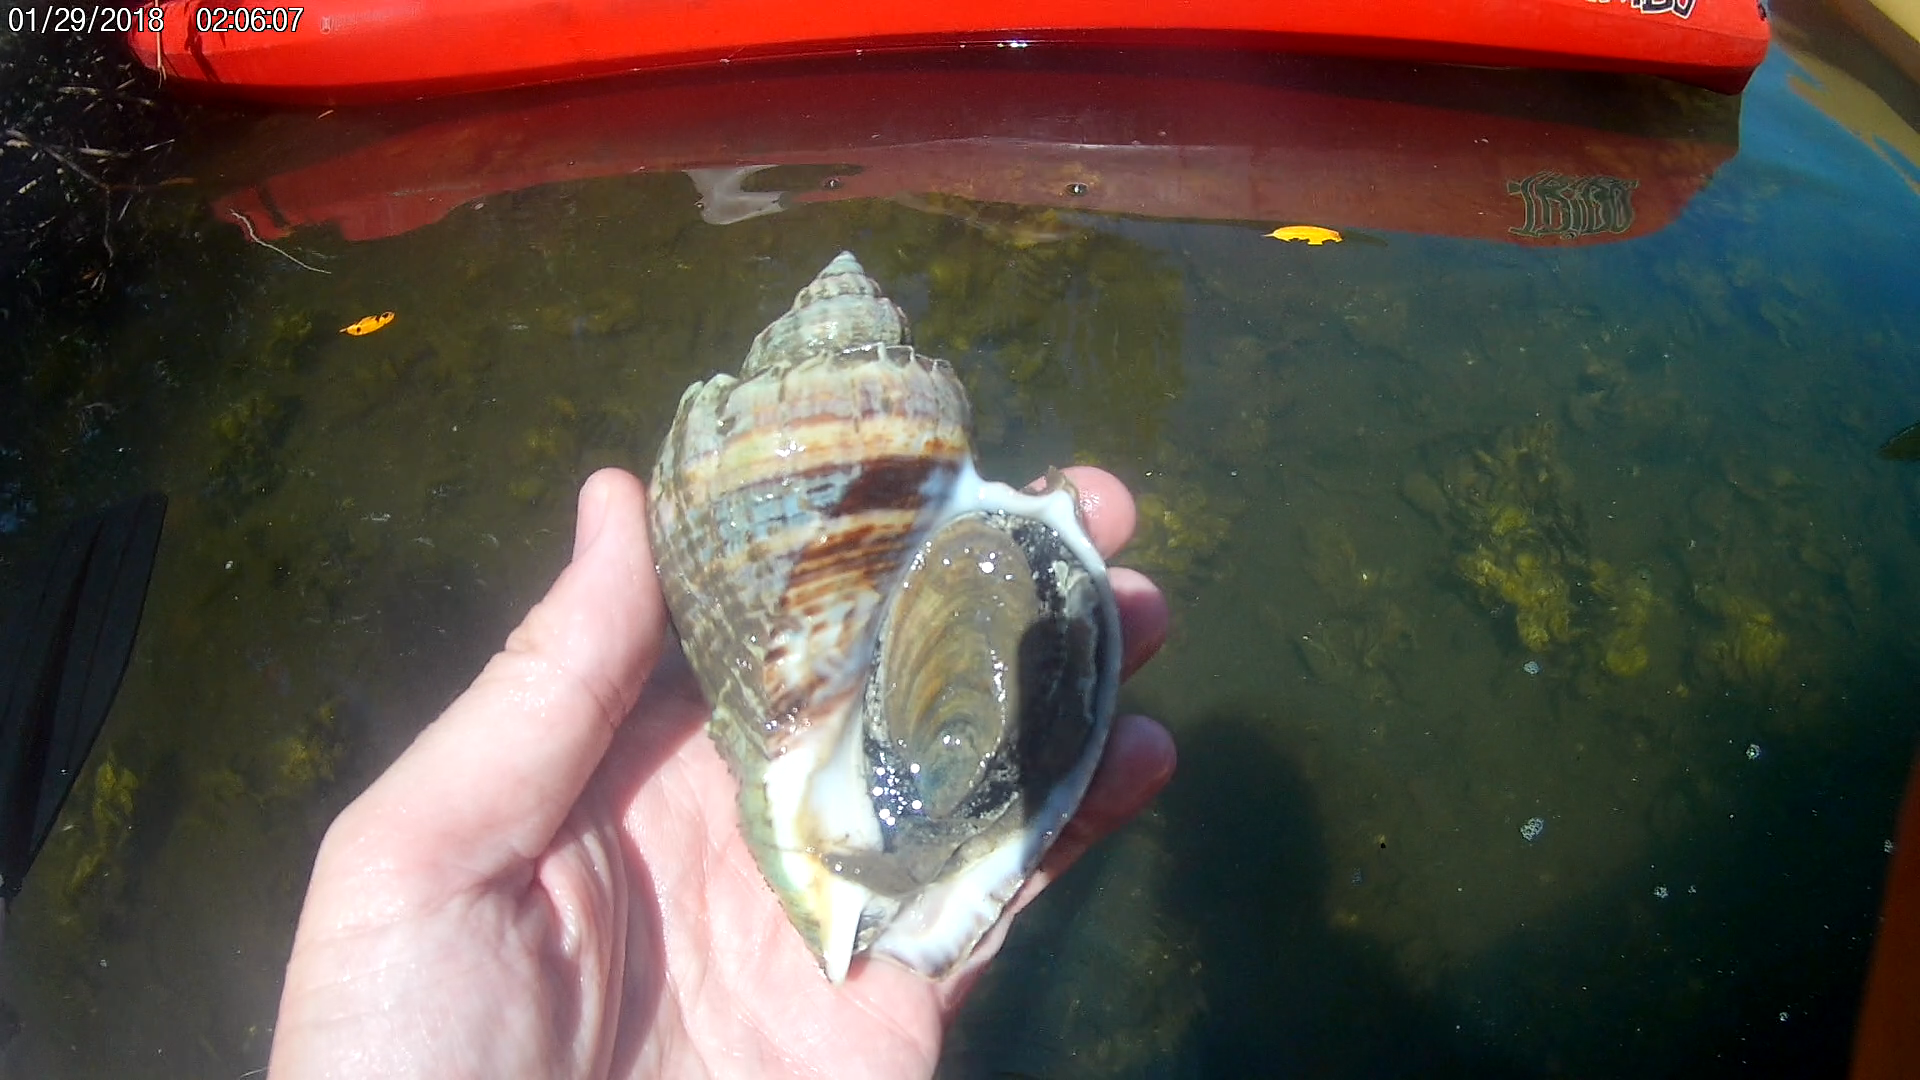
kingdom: Animalia
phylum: Mollusca
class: Gastropoda
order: Neogastropoda
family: Melongenidae
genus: Melongena
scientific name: Melongena corona
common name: American crown conch
